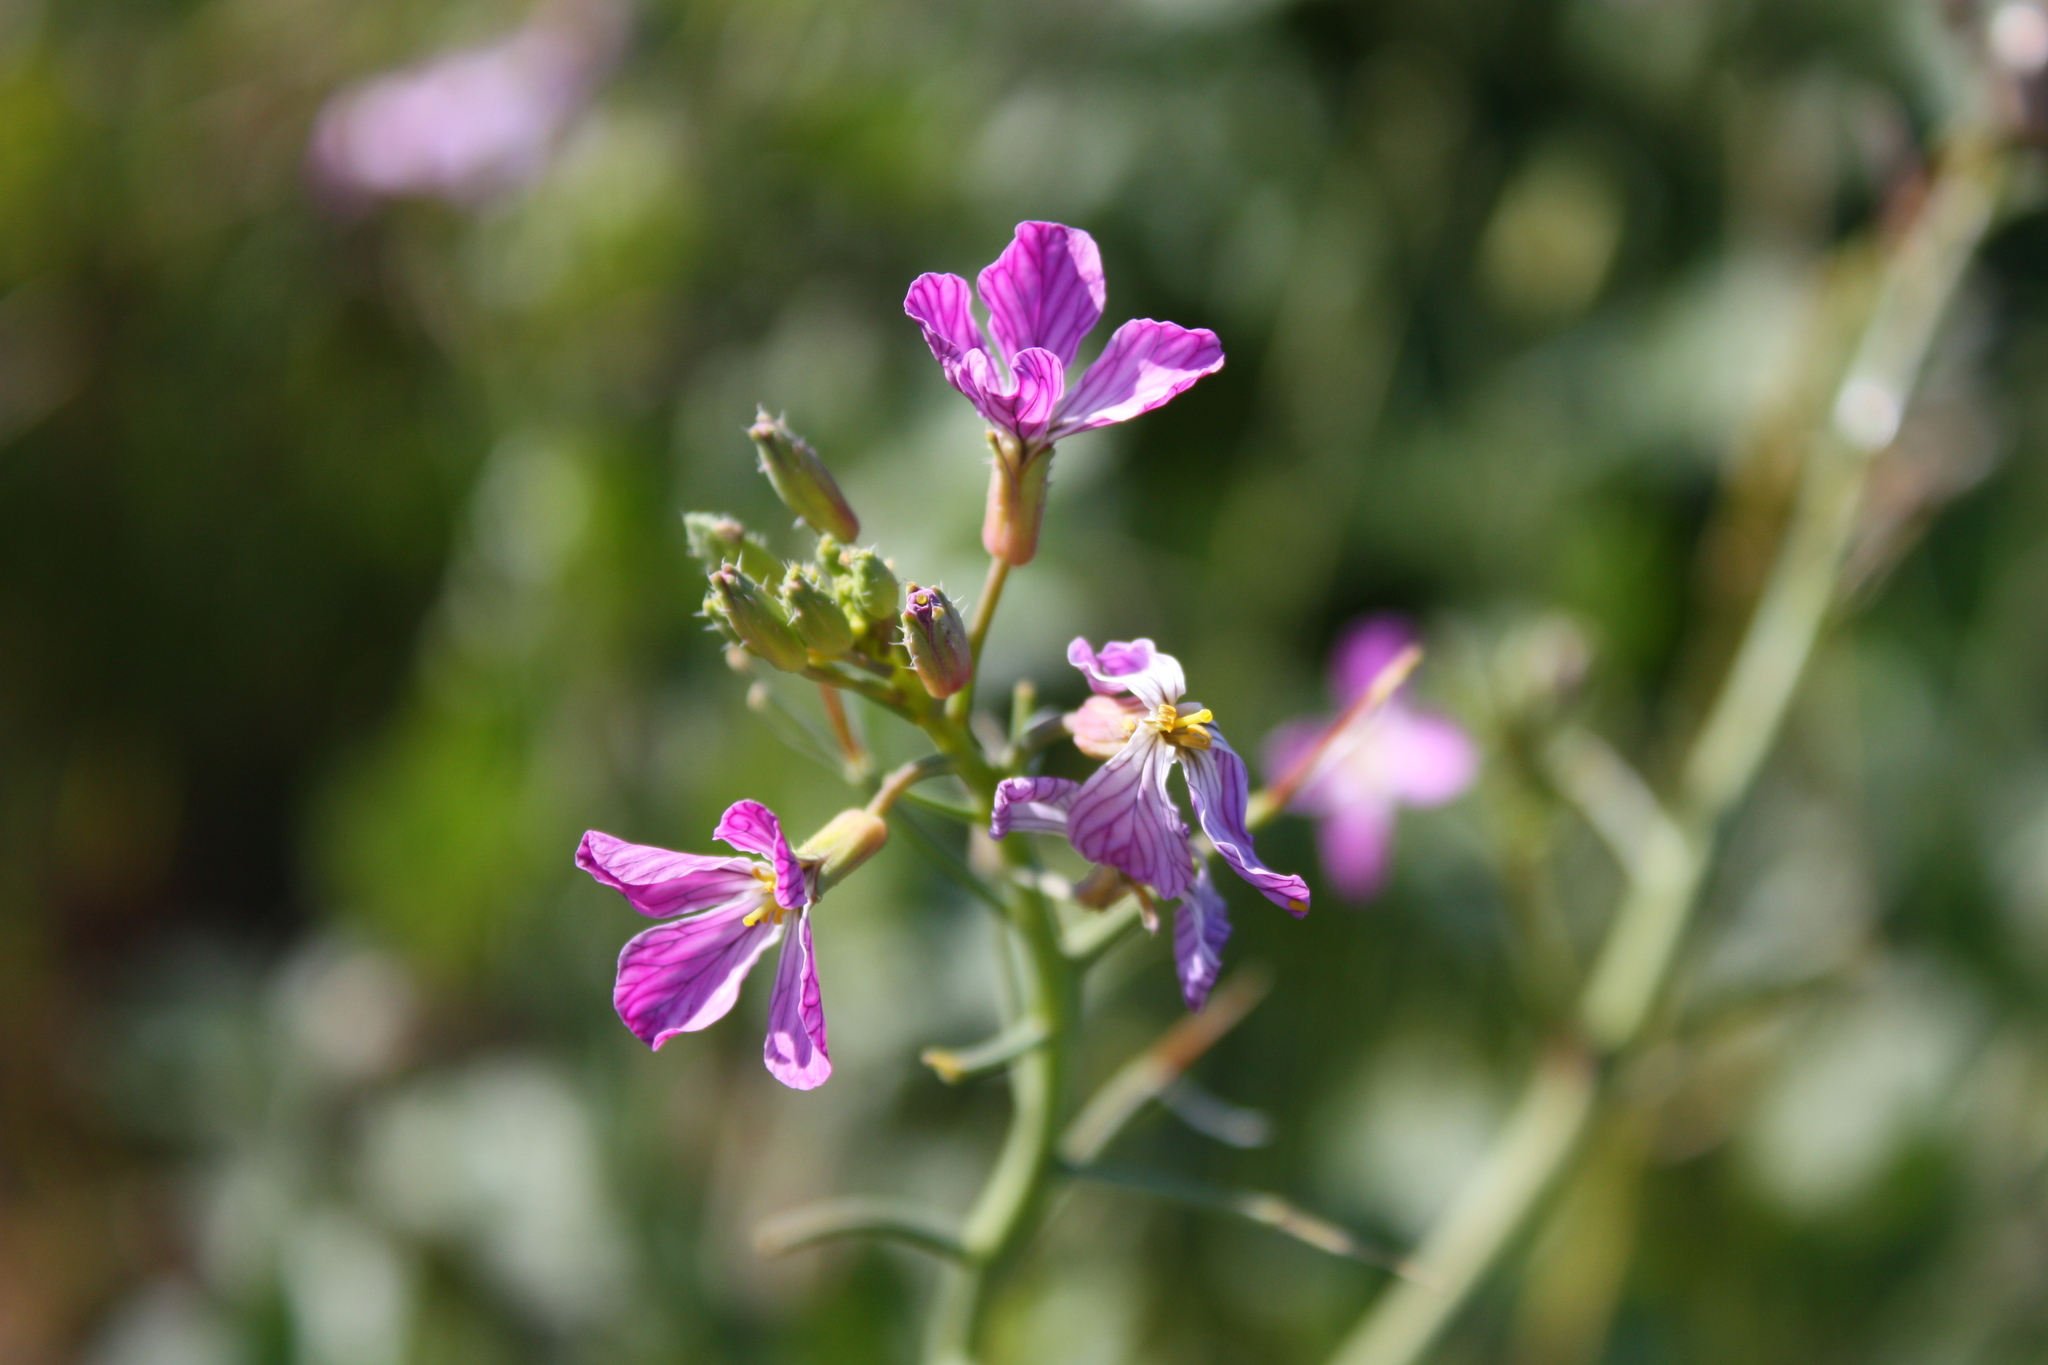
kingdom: Plantae
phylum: Tracheophyta
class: Magnoliopsida
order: Brassicales
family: Brassicaceae
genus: Raphanus
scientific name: Raphanus sativus
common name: Cultivated radish
